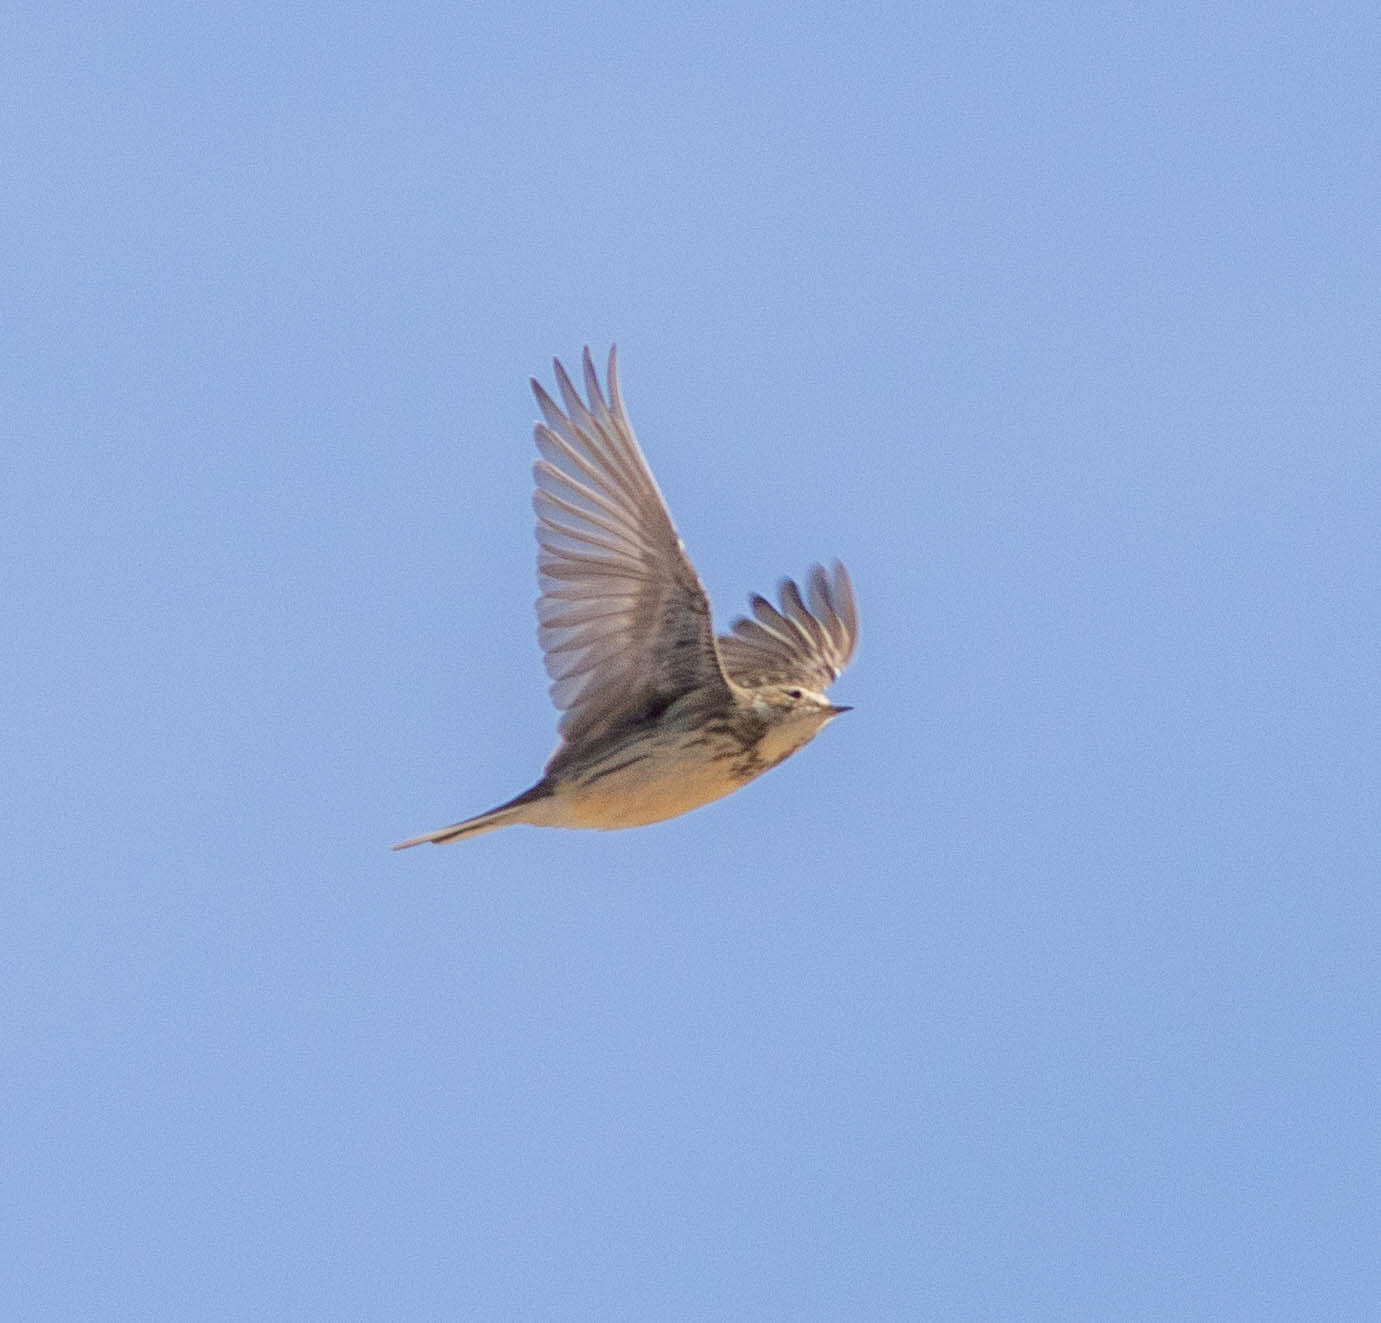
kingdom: Animalia
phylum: Chordata
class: Aves
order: Passeriformes
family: Motacillidae
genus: Anthus
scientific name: Anthus rubescens
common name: Buff-bellied pipit
